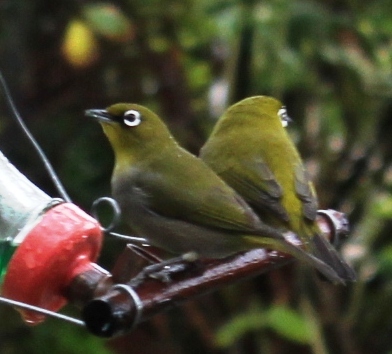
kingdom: Animalia
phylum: Chordata
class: Aves
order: Passeriformes
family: Zosteropidae
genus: Zosterops
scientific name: Zosterops virens
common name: Cape white-eye
